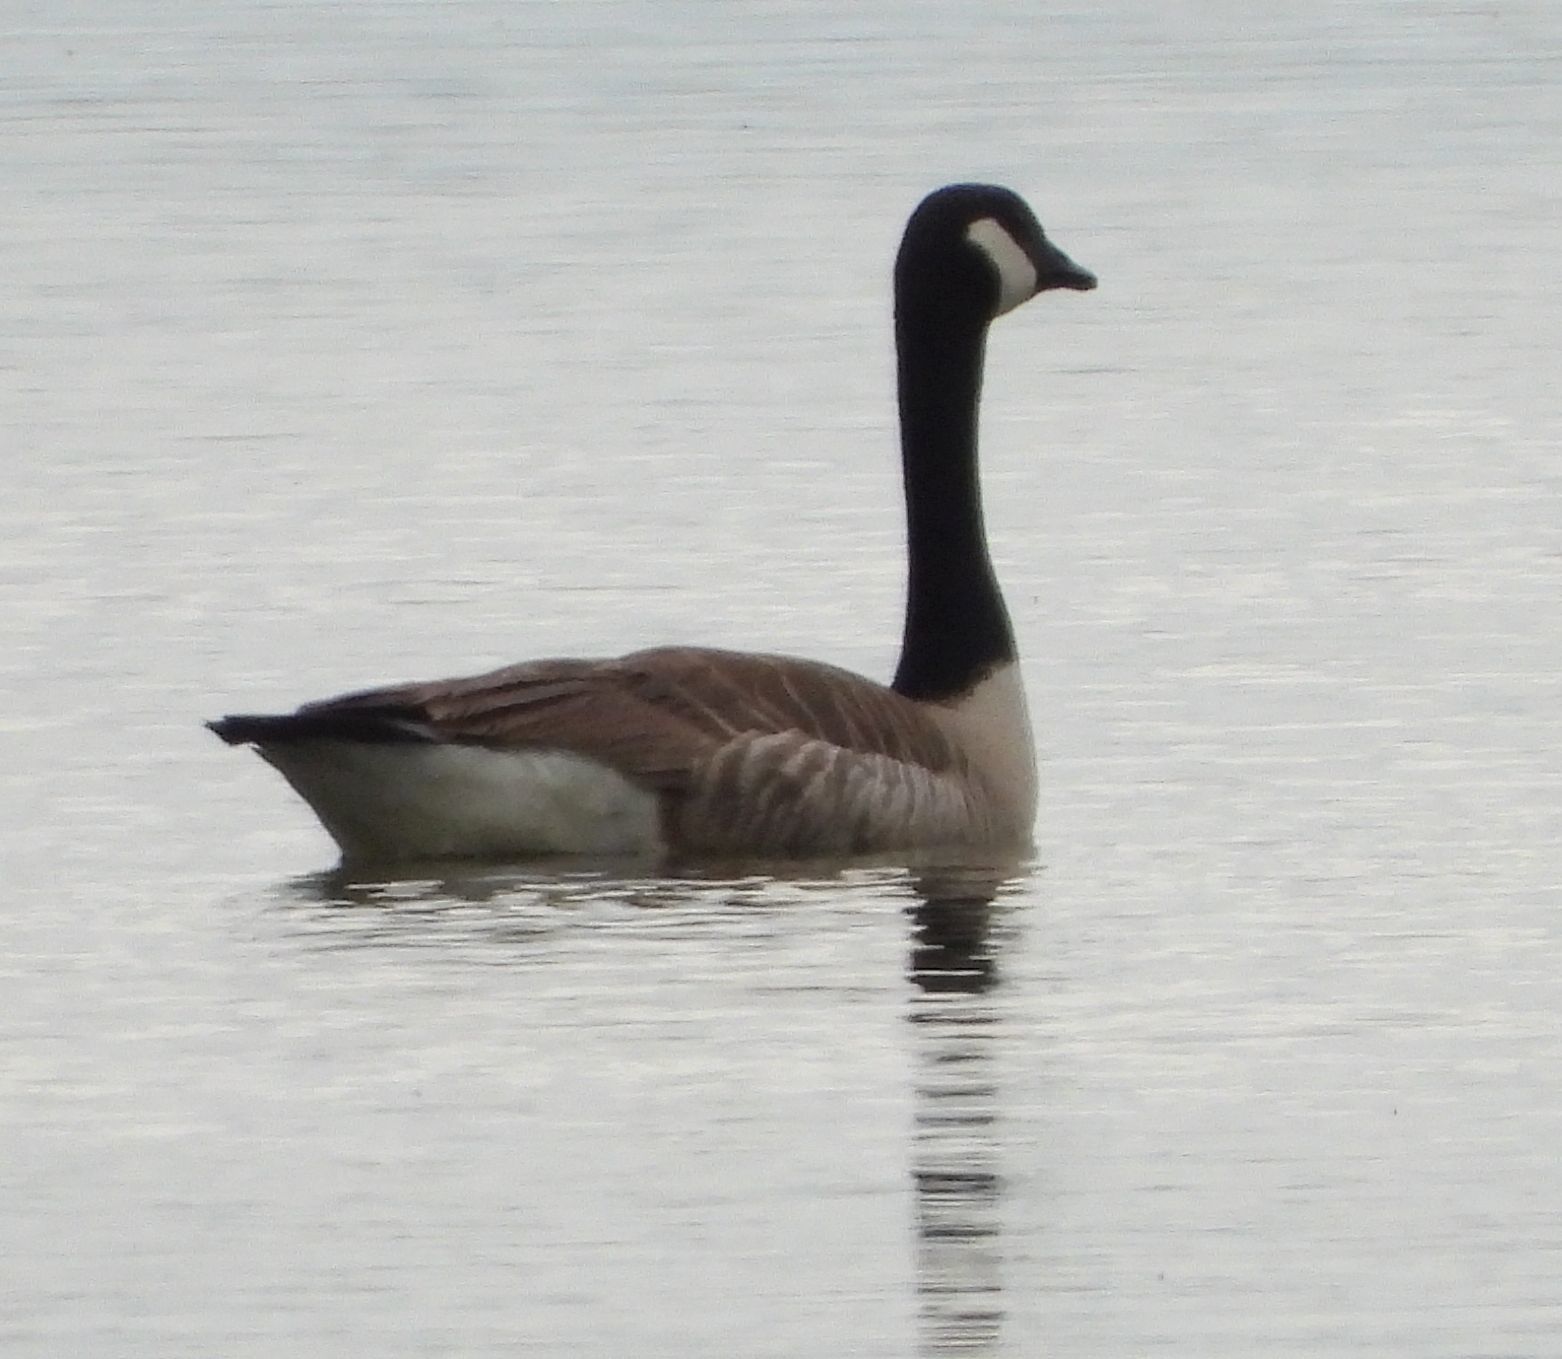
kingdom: Animalia
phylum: Chordata
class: Aves
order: Anseriformes
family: Anatidae
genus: Branta
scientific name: Branta canadensis
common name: Canada goose
